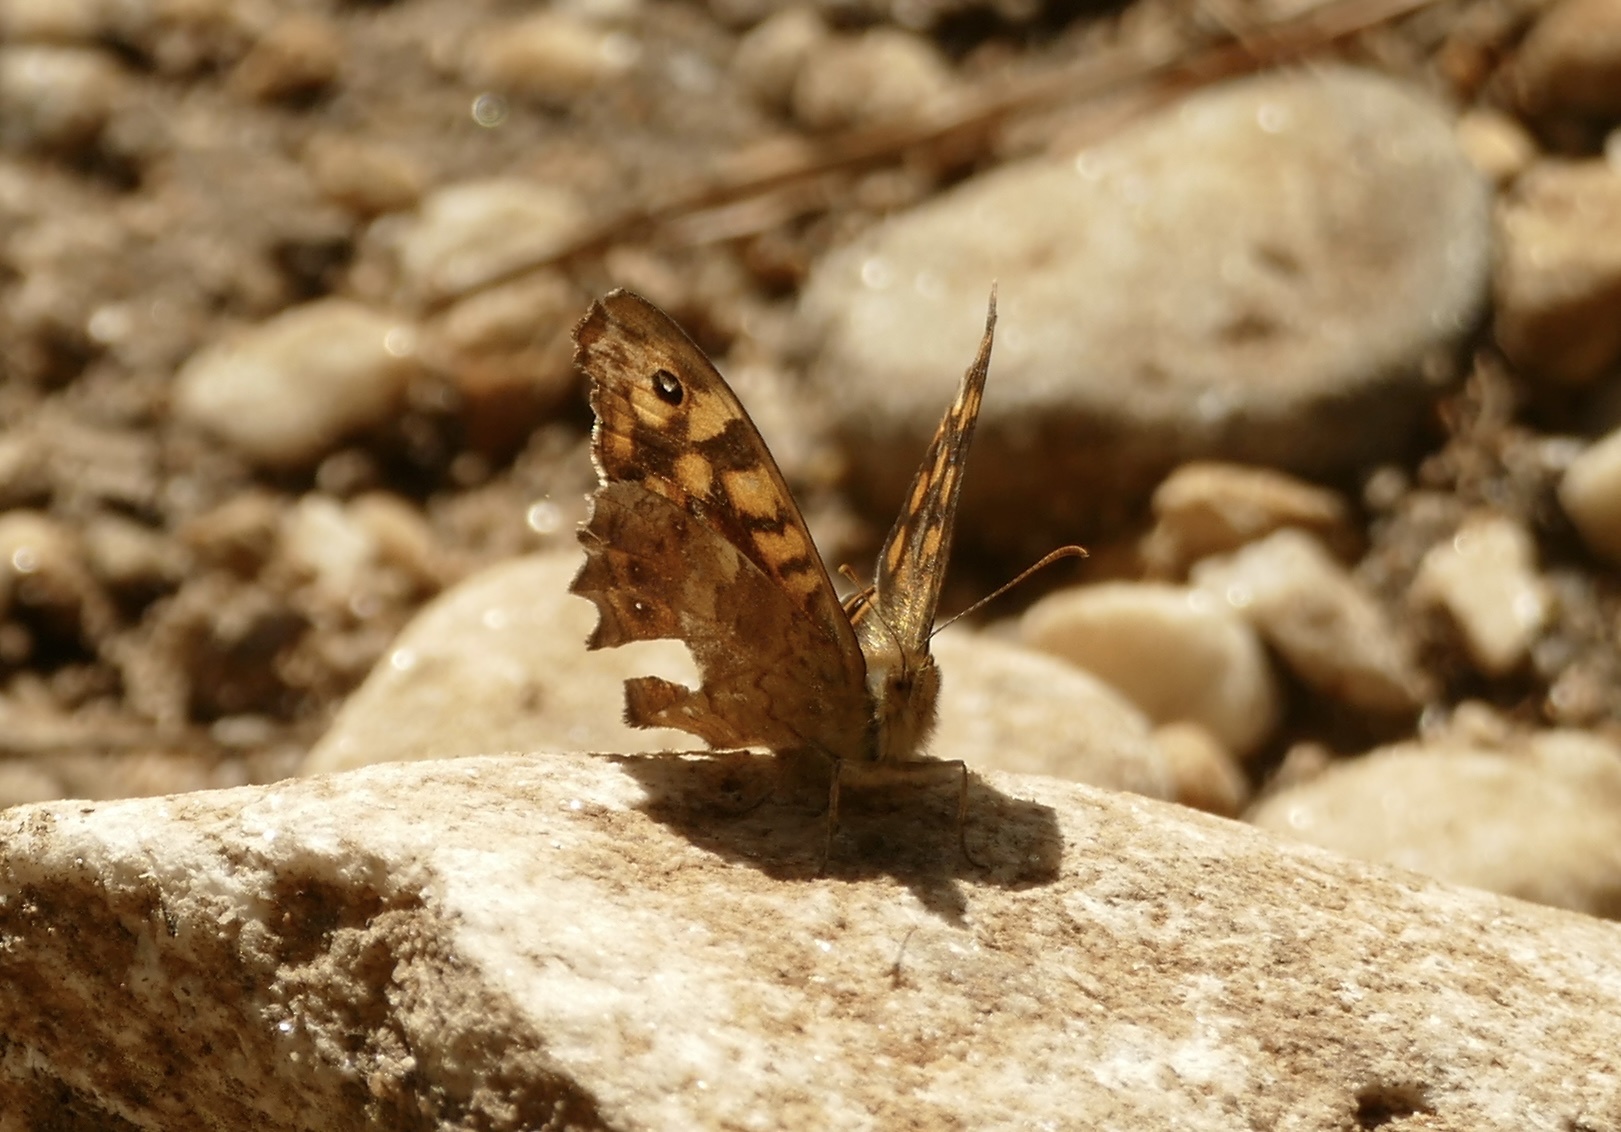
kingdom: Animalia
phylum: Arthropoda
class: Insecta
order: Lepidoptera
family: Nymphalidae
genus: Pararge
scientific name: Pararge aegeria
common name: Speckled wood
